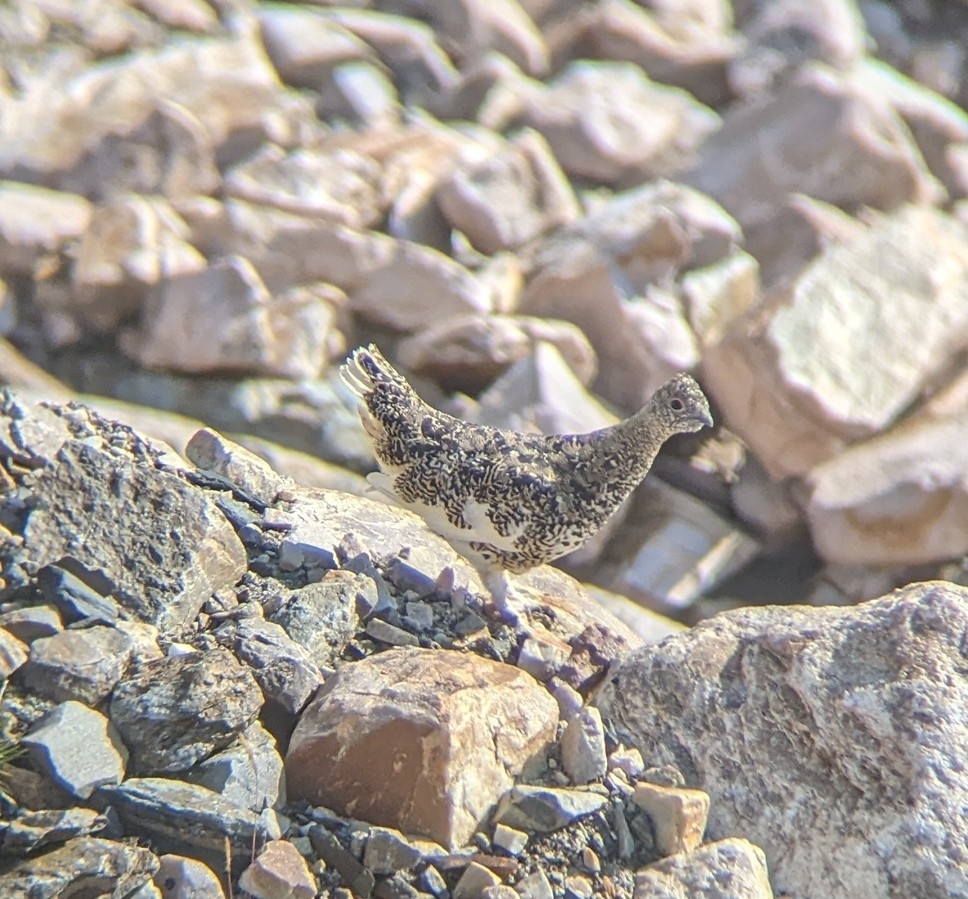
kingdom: Animalia
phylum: Chordata
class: Aves
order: Galliformes
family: Phasianidae
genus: Lagopus
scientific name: Lagopus leucura
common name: White-tailed ptarmigan
